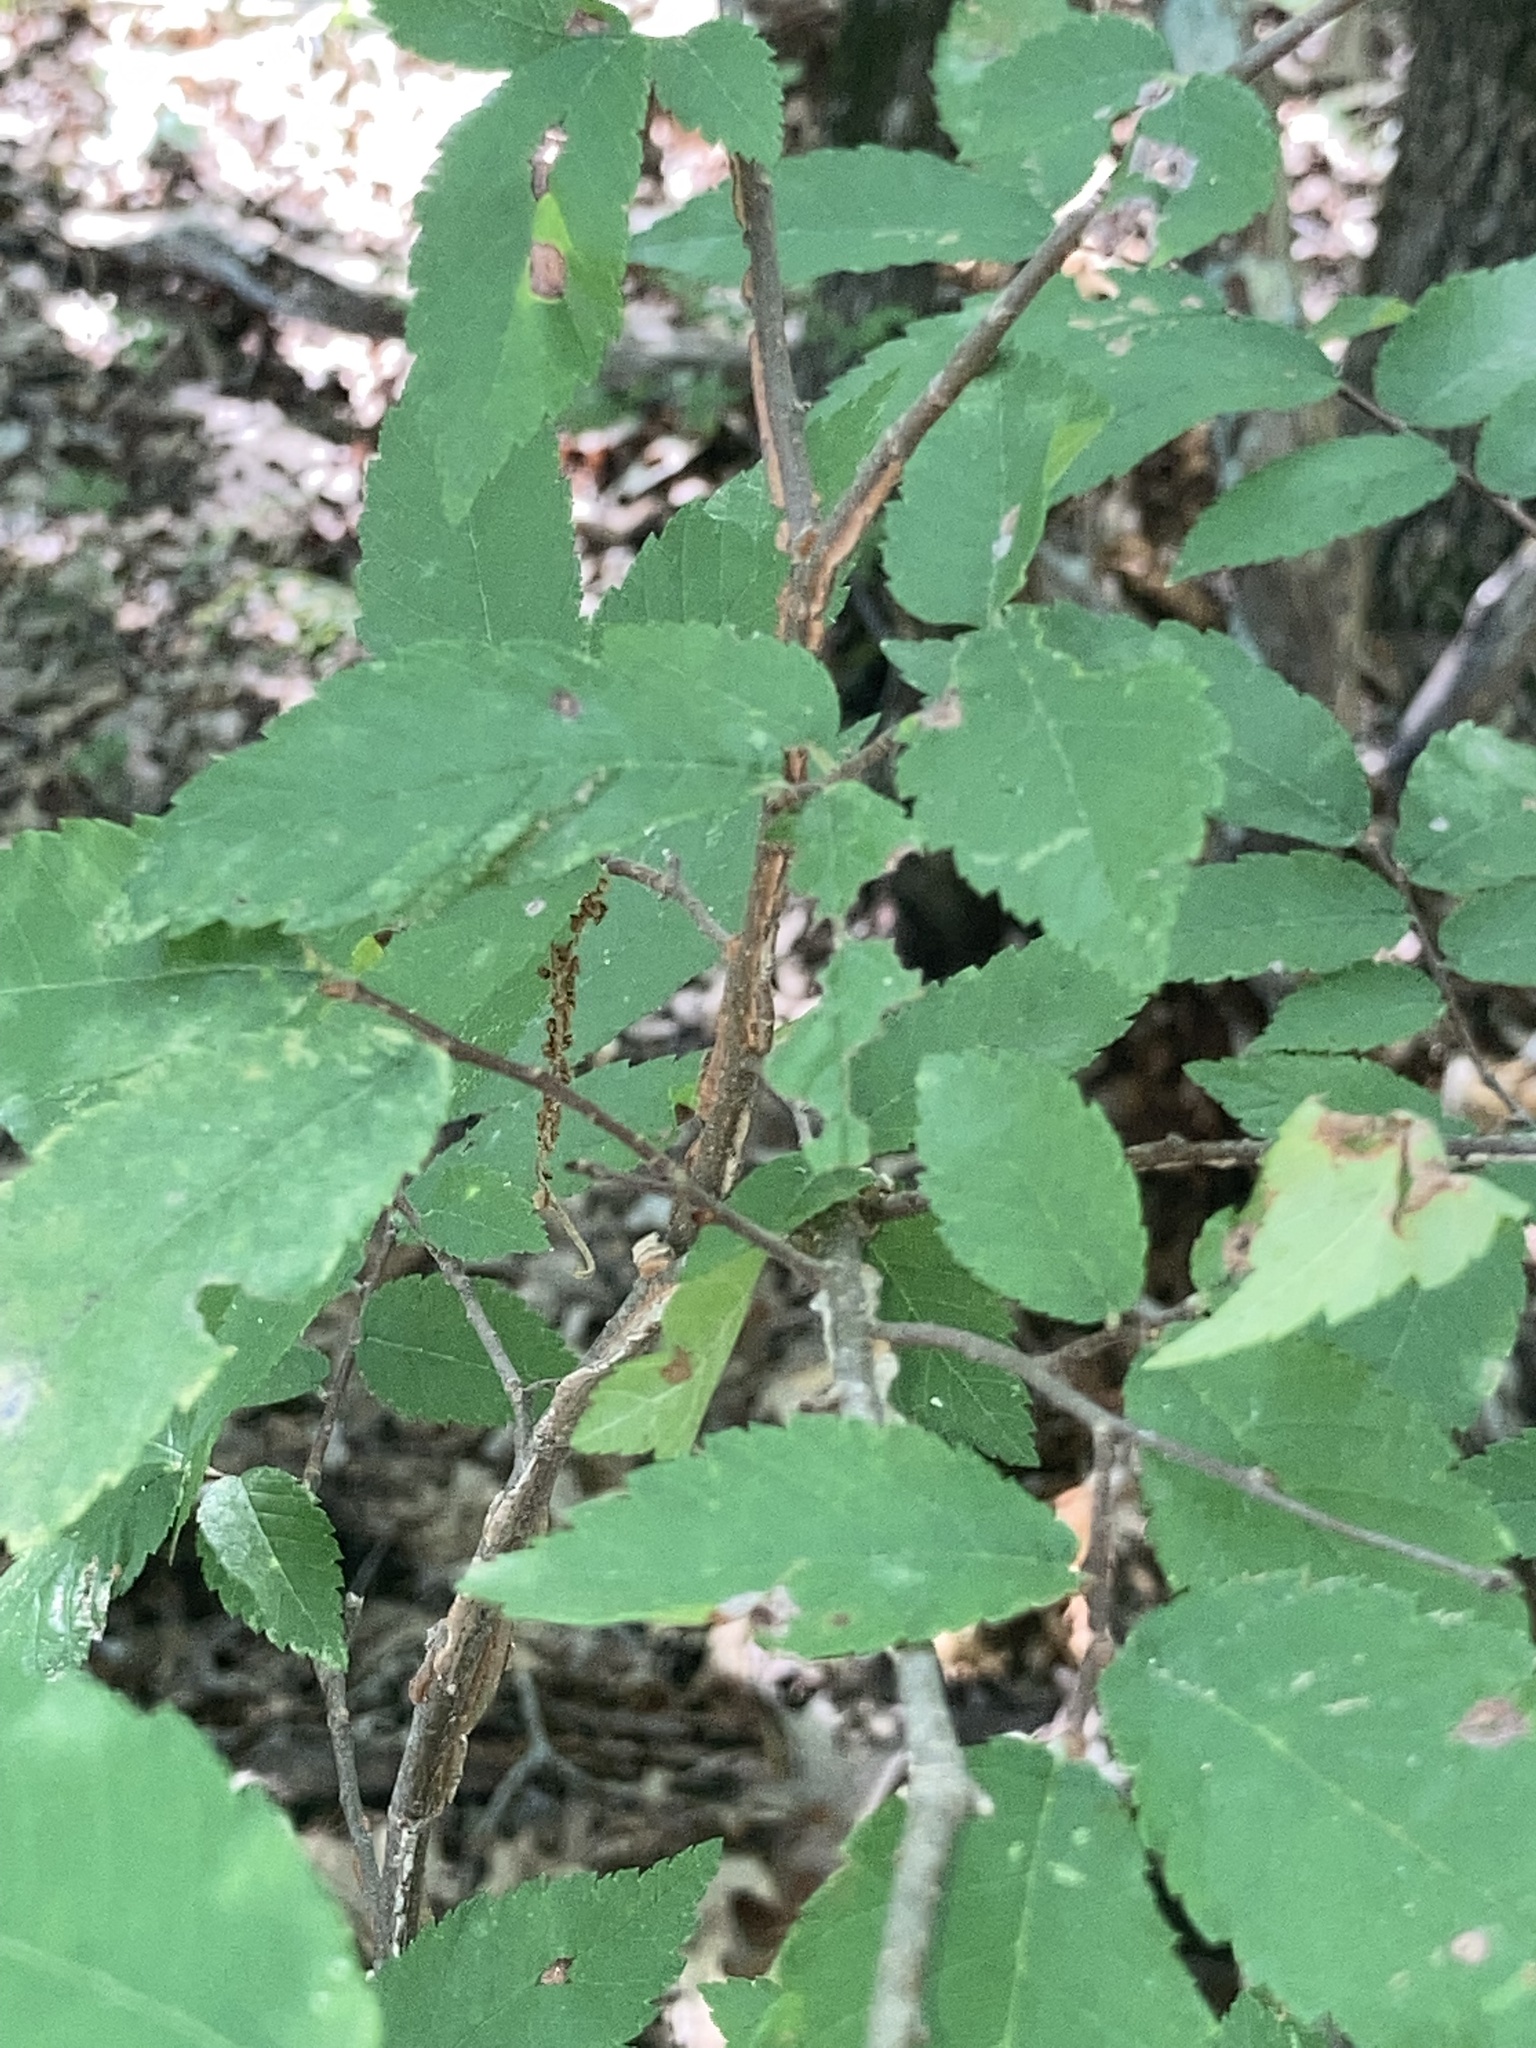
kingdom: Plantae
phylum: Tracheophyta
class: Magnoliopsida
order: Rosales
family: Ulmaceae
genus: Ulmus
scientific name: Ulmus alata
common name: Winged elm
